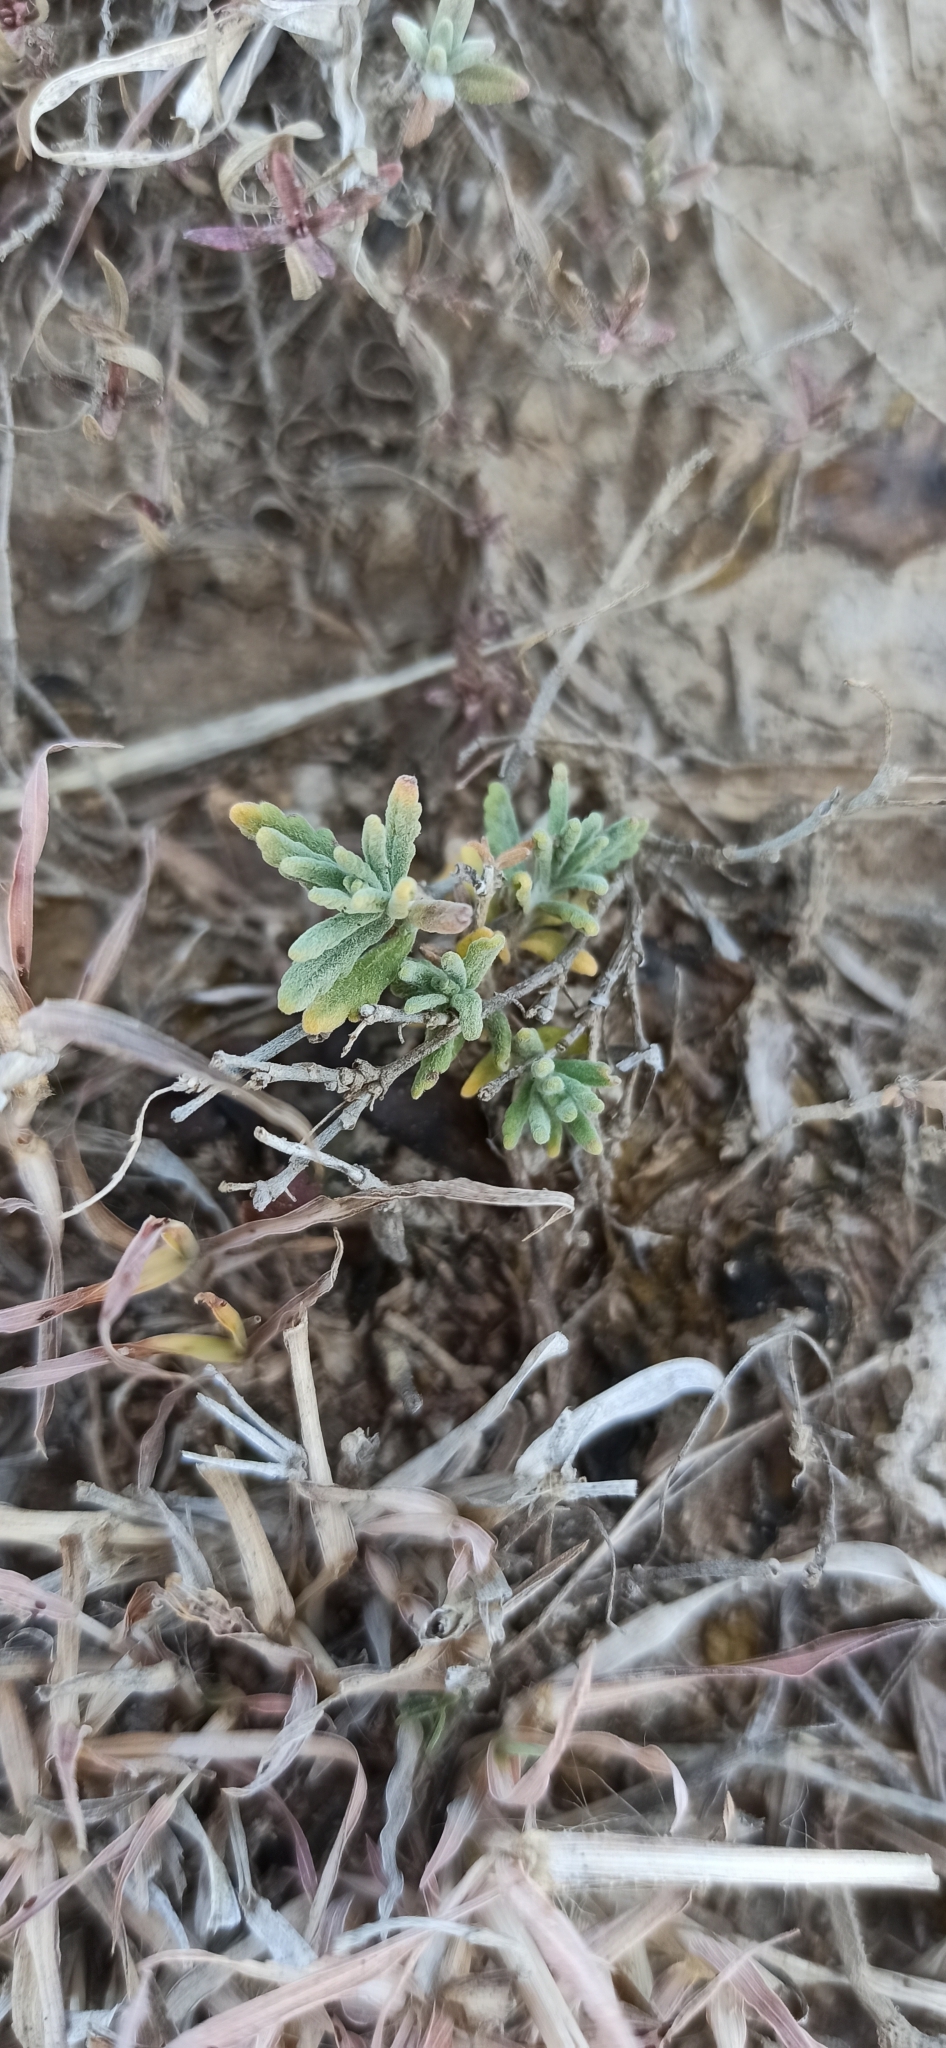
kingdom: Plantae
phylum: Tracheophyta
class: Magnoliopsida
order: Lamiales
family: Lamiaceae
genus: Teucrium
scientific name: Teucrium polium
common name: Poley
